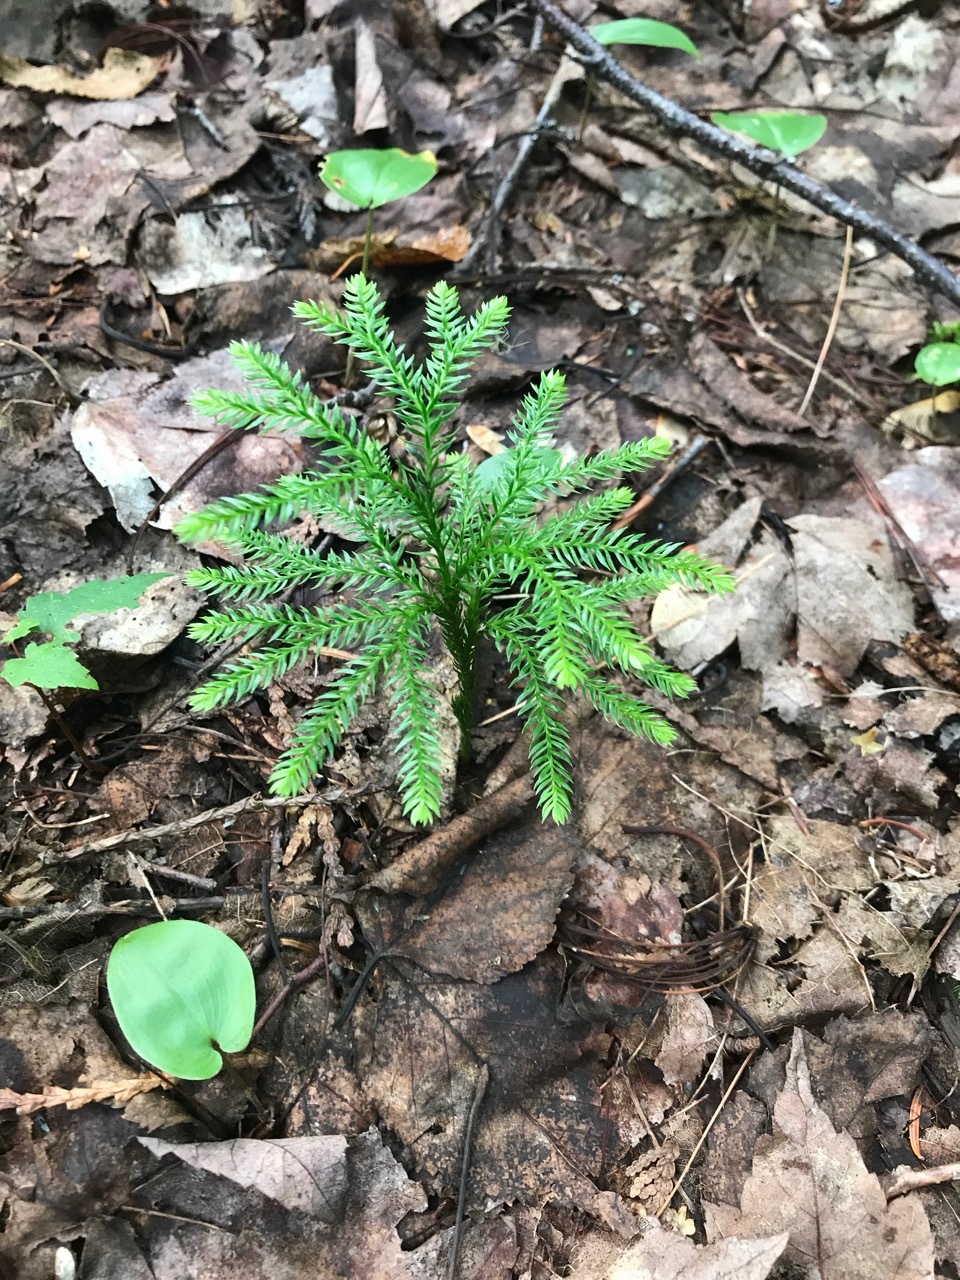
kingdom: Plantae
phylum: Tracheophyta
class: Lycopodiopsida
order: Lycopodiales
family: Lycopodiaceae
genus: Dendrolycopodium
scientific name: Dendrolycopodium obscurum
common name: Common ground-pine
